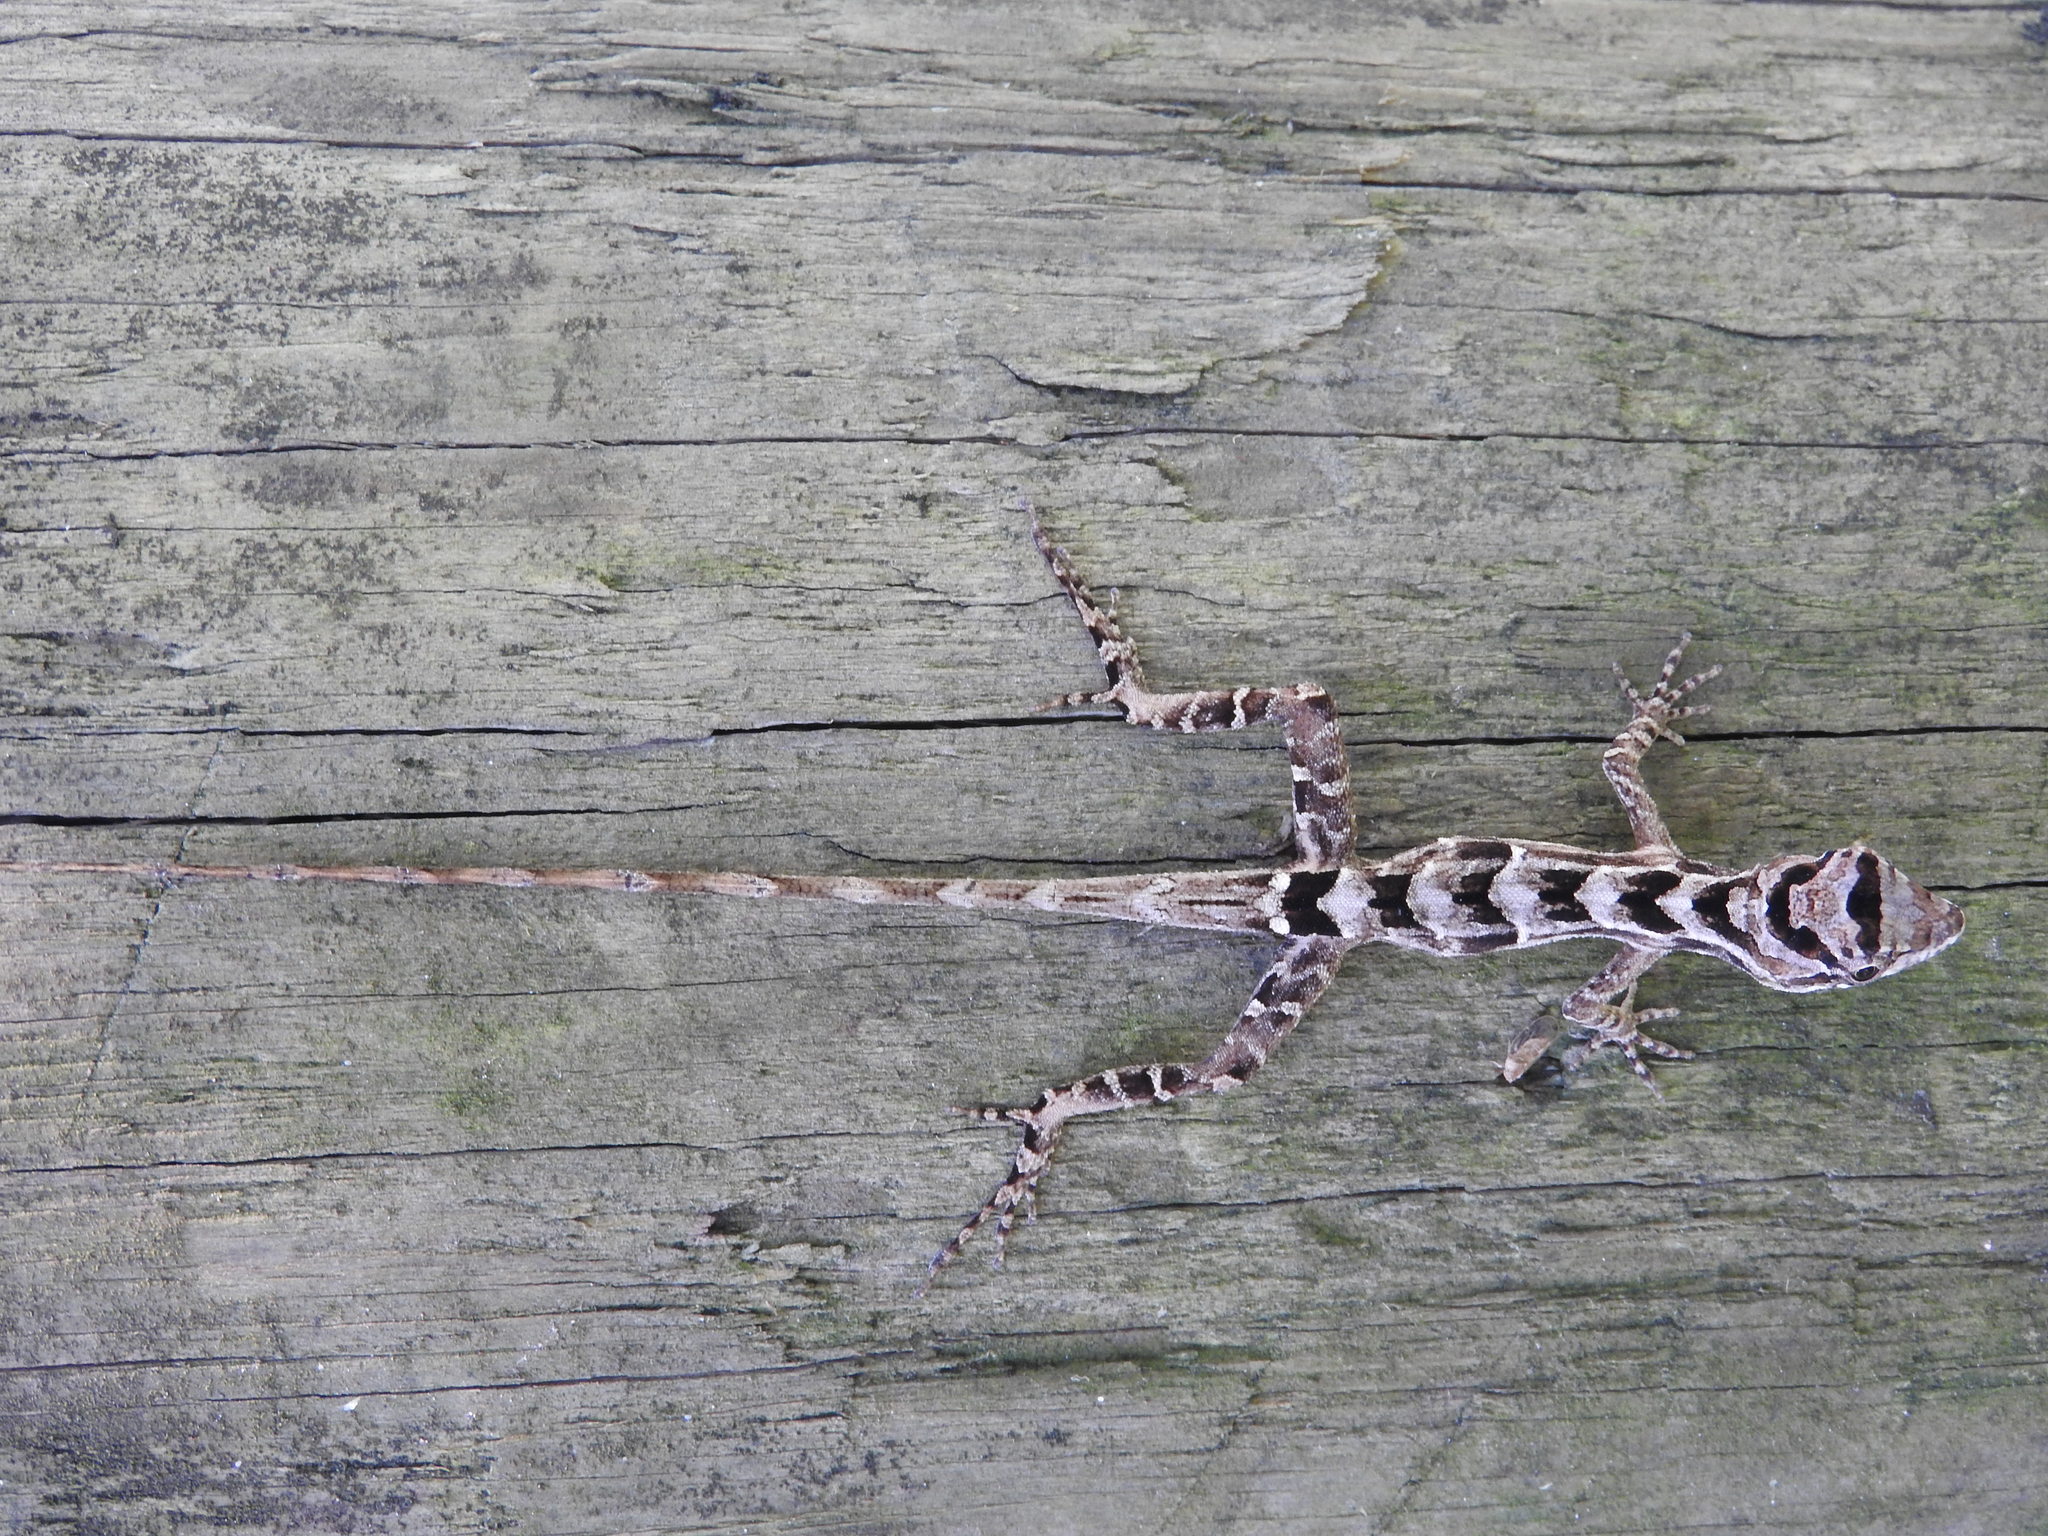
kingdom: Animalia
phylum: Chordata
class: Squamata
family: Dactyloidae
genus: Anolis
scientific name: Anolis serranoi
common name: Serrano’s anole
